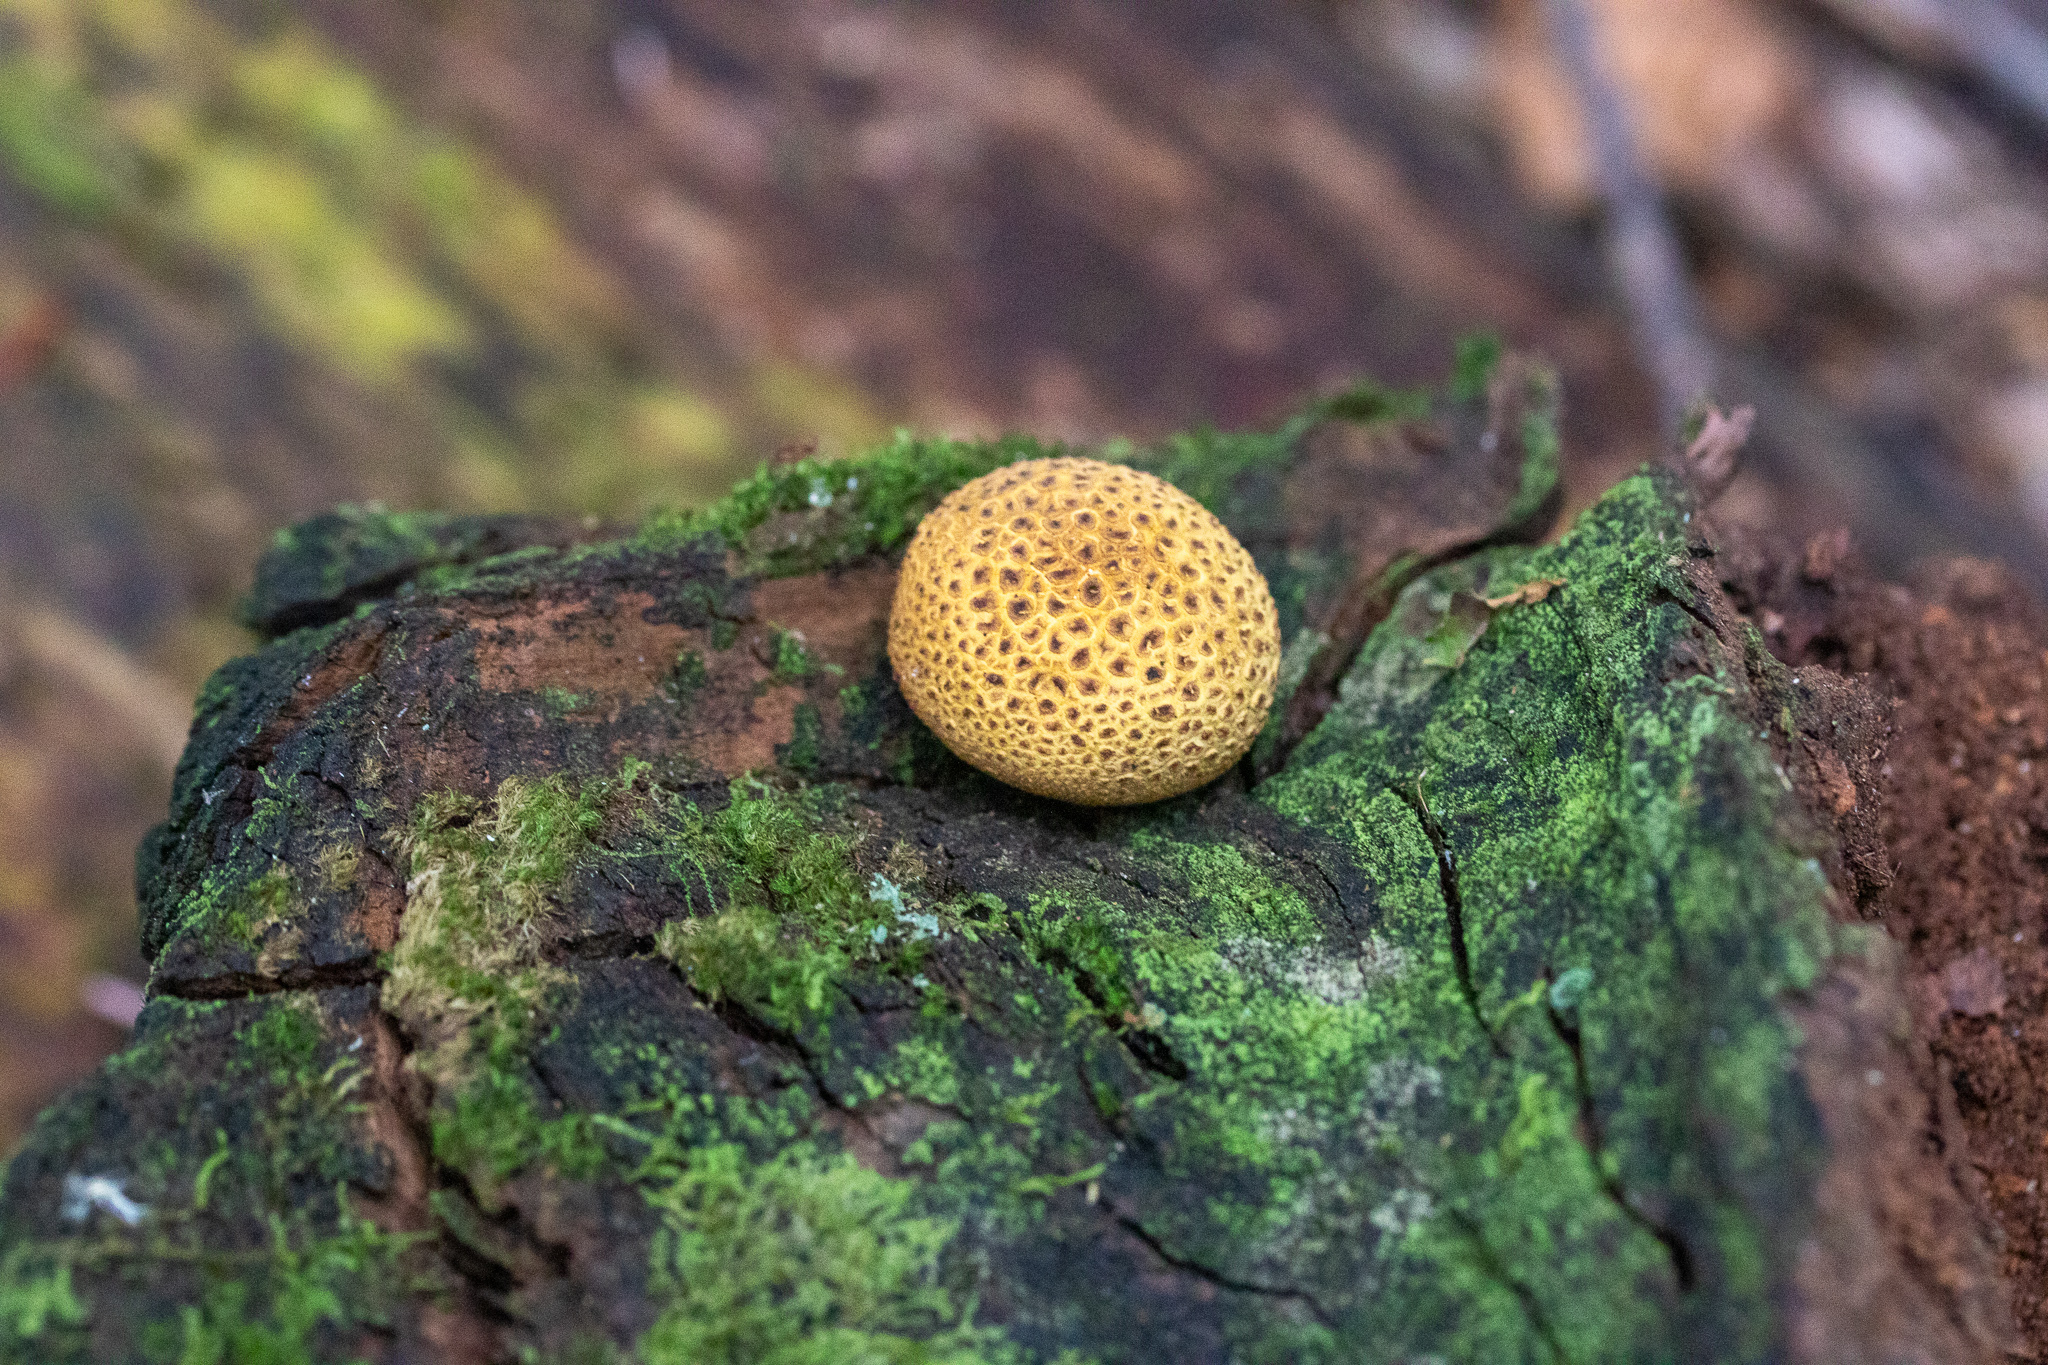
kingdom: Fungi
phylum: Basidiomycota
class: Agaricomycetes
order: Boletales
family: Sclerodermataceae
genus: Scleroderma
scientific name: Scleroderma citrinum
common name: Common earthball
